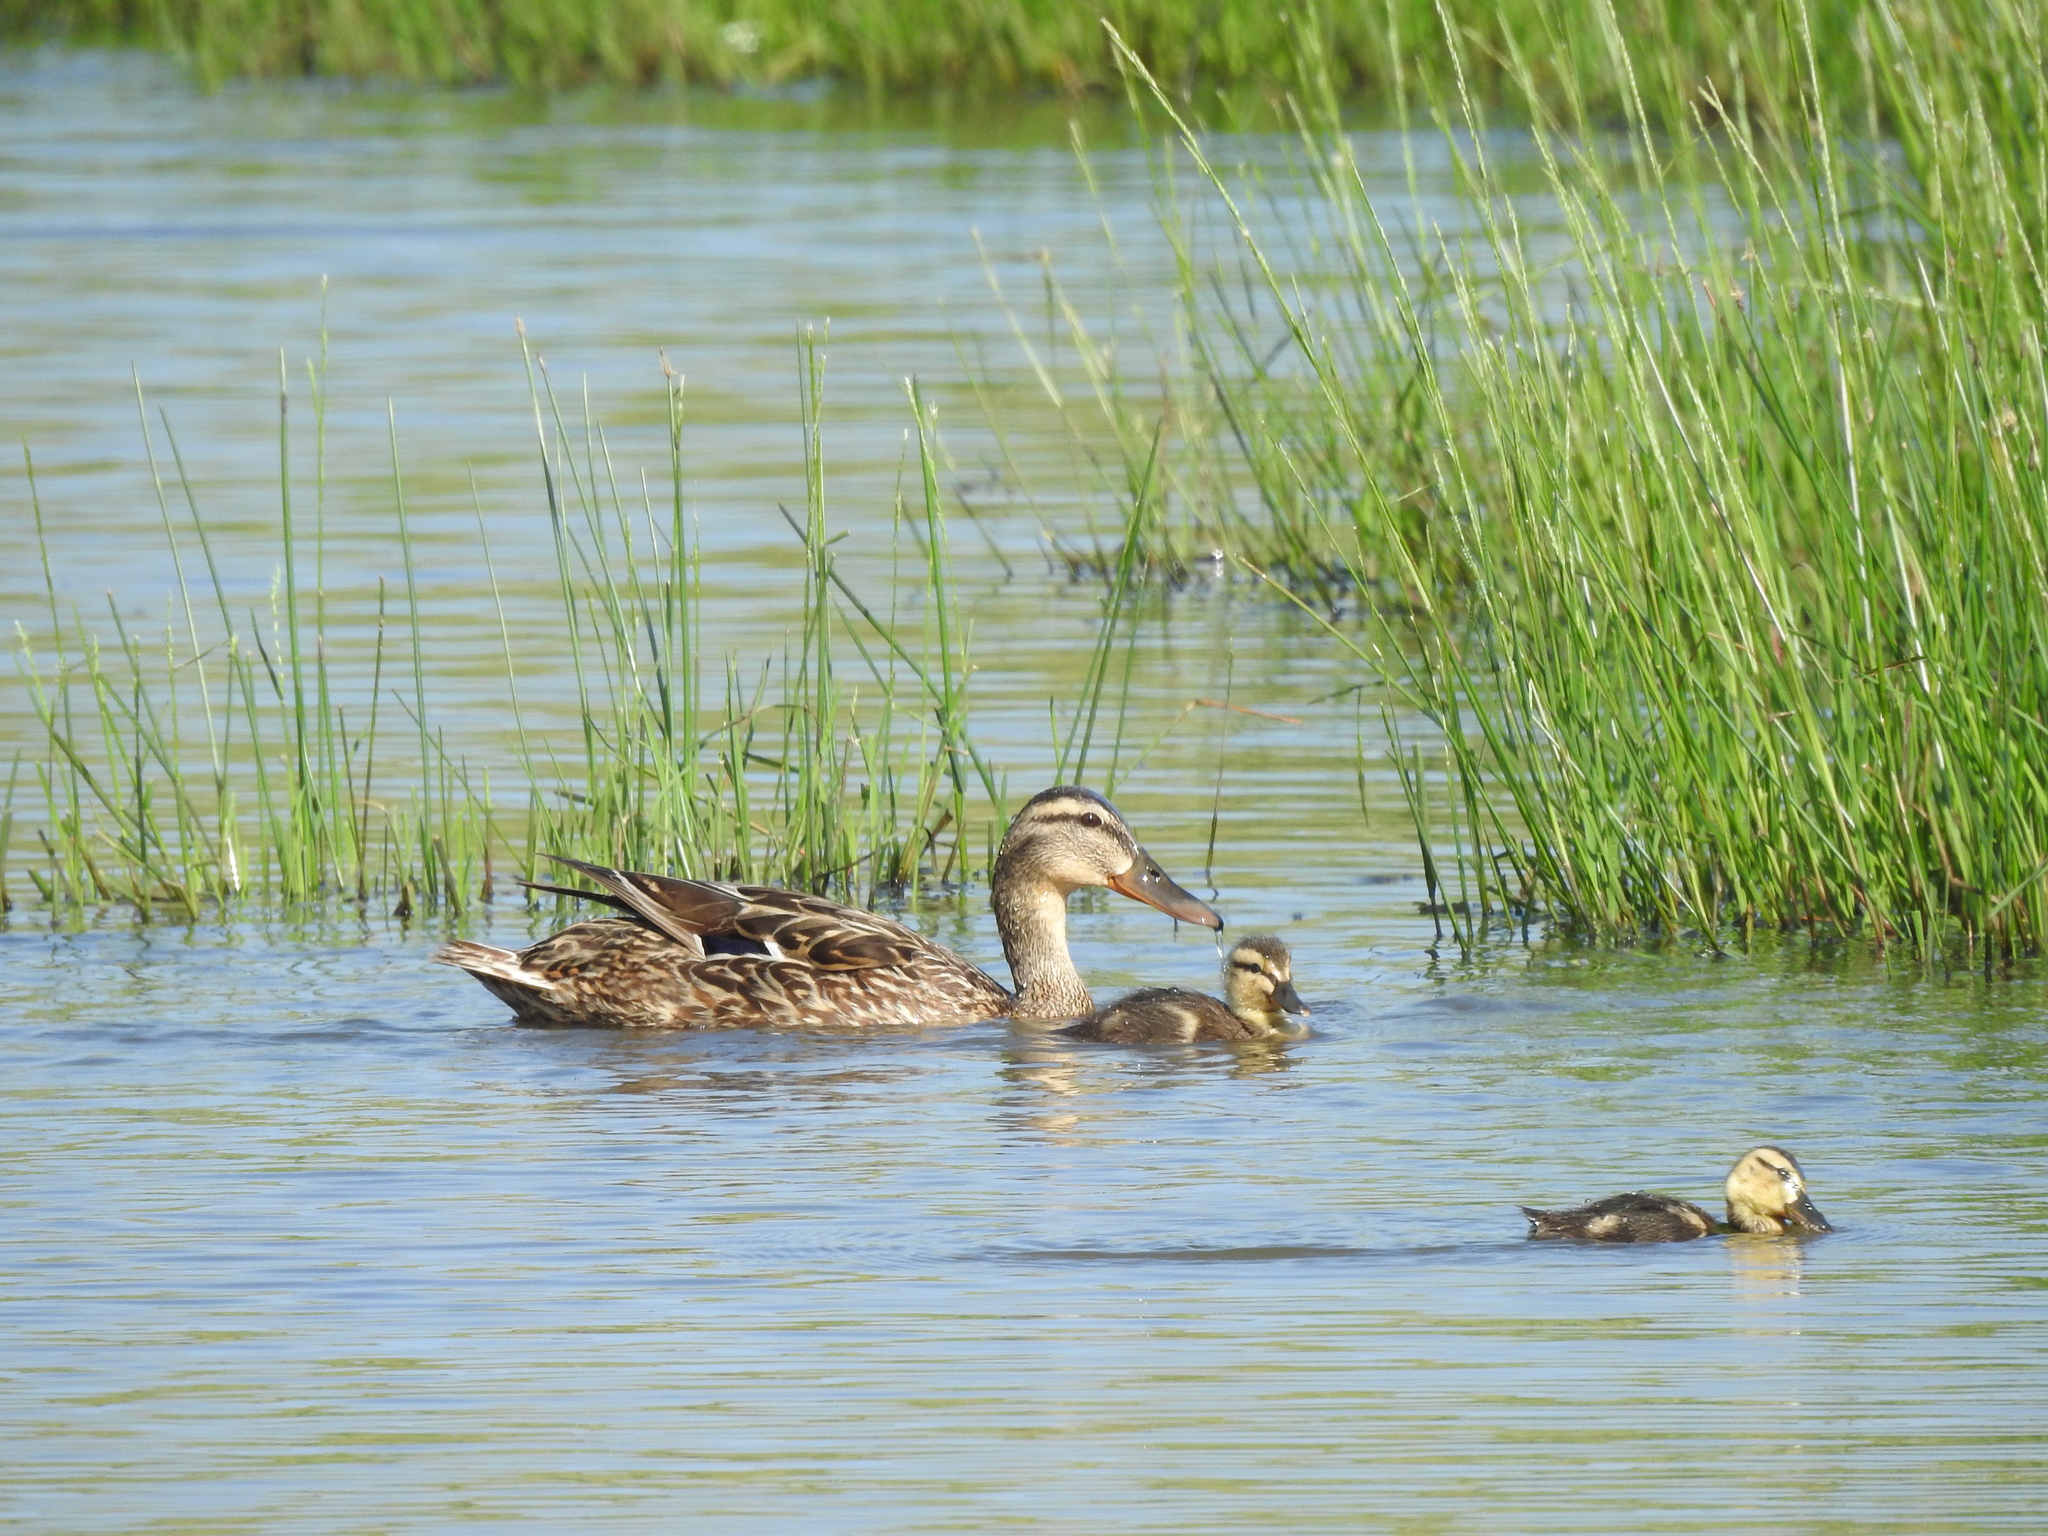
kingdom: Animalia
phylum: Chordata
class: Aves
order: Anseriformes
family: Anatidae
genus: Anas
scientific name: Anas platyrhynchos
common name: Mallard
